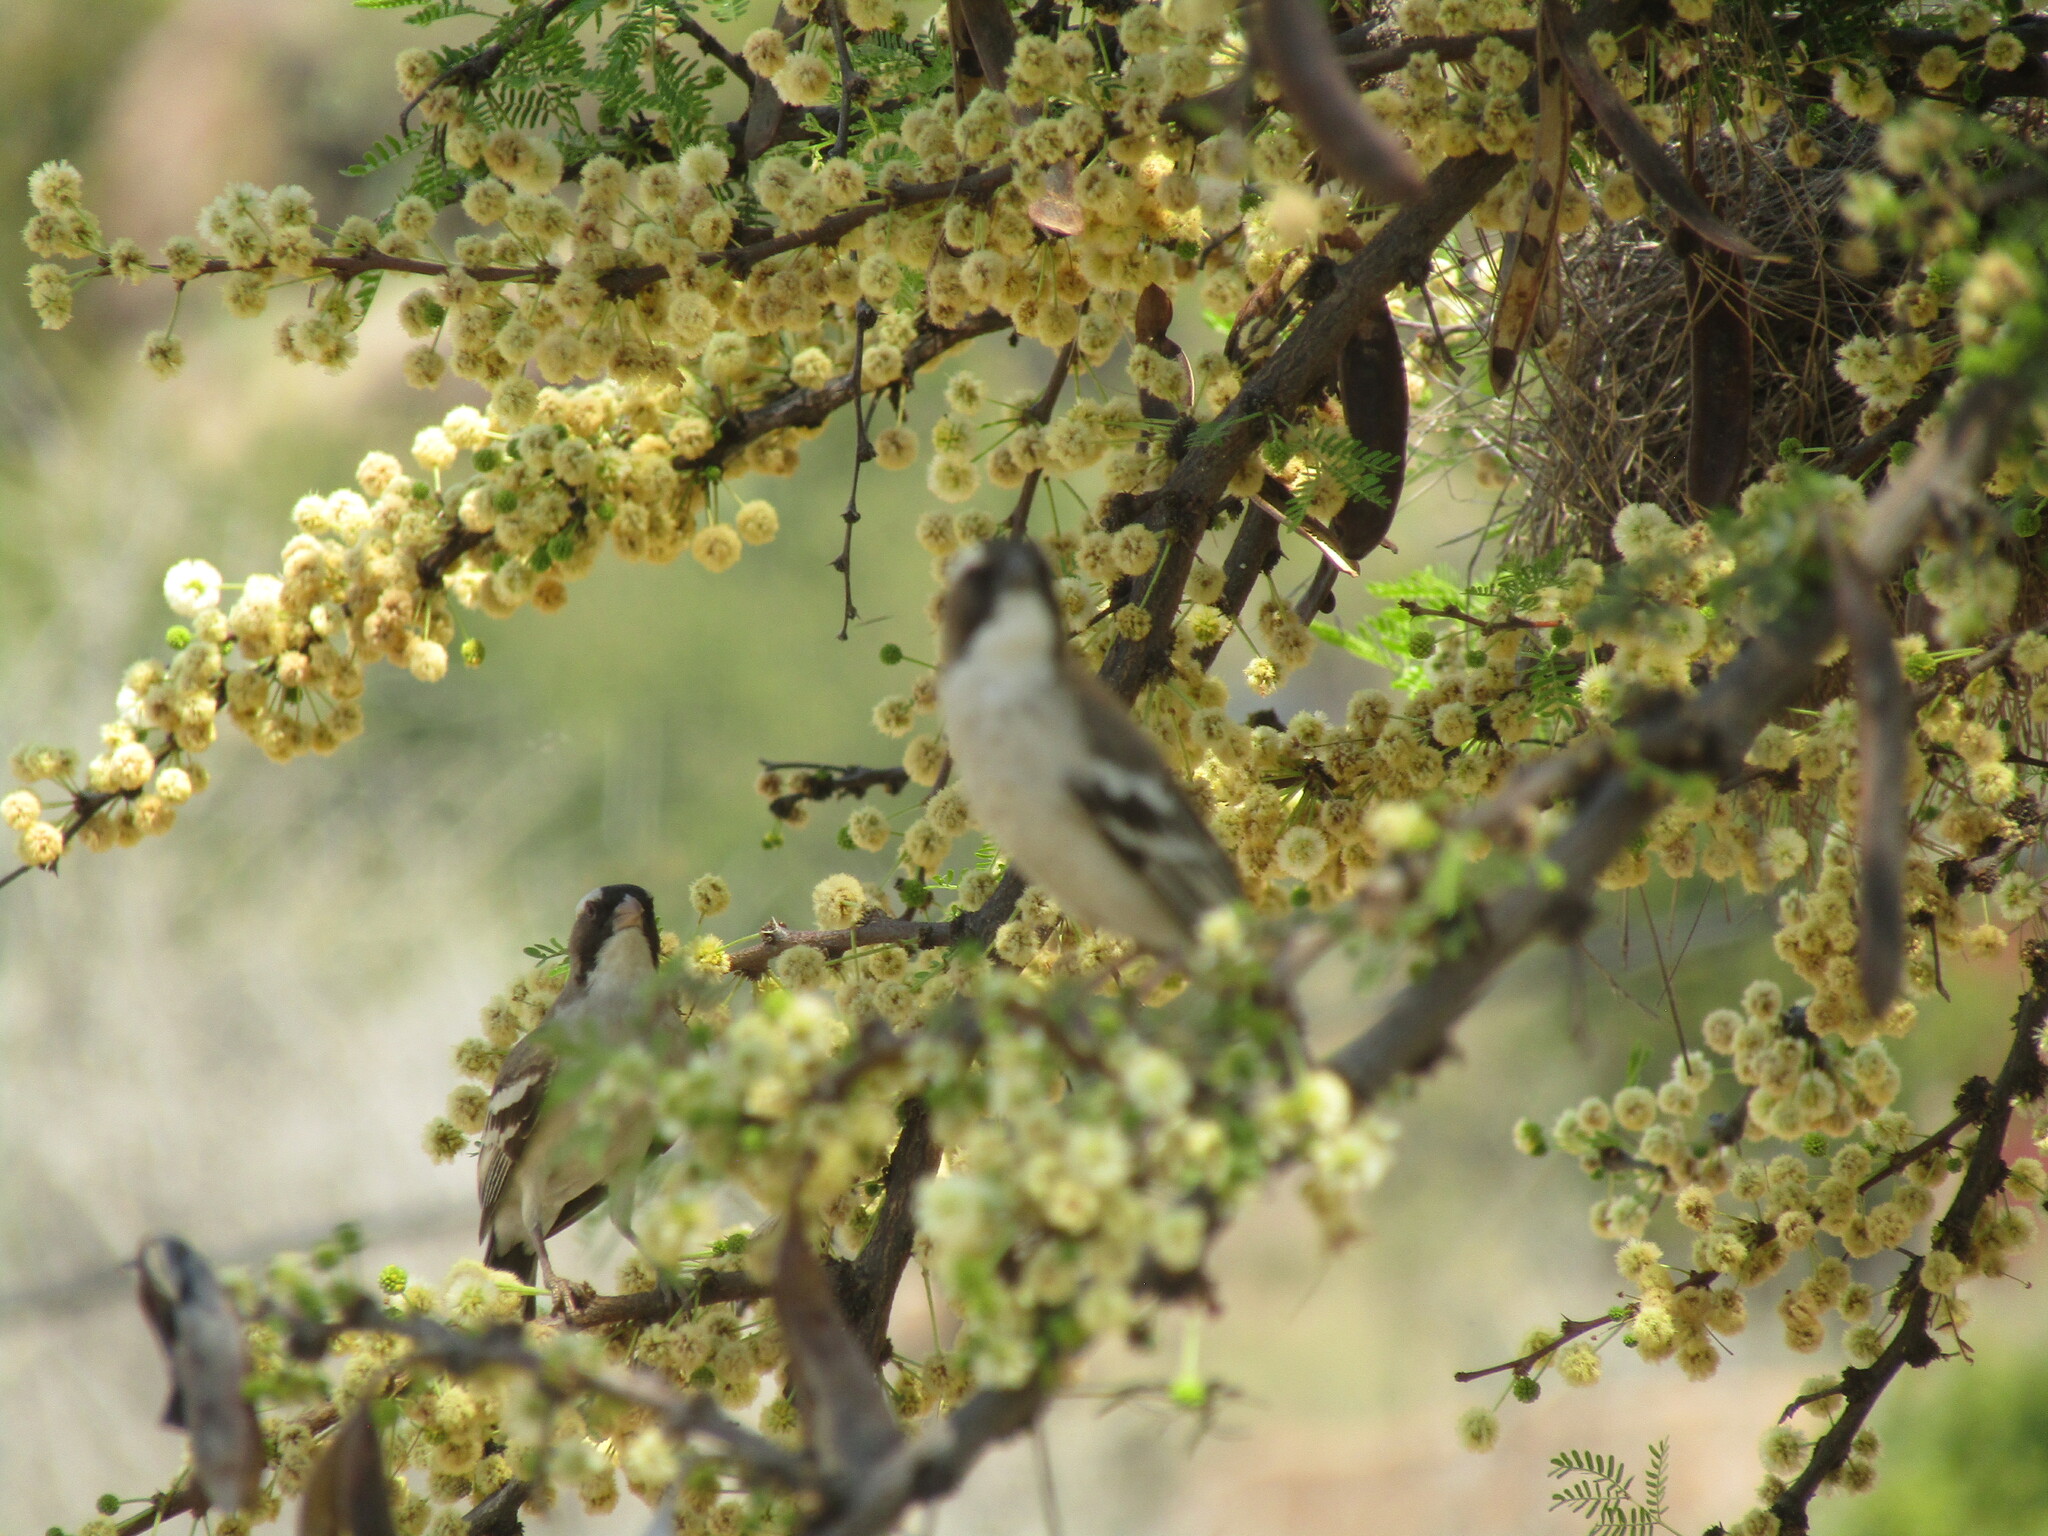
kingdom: Animalia
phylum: Chordata
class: Aves
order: Passeriformes
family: Passeridae
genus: Plocepasser
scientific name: Plocepasser mahali
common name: White-browed sparrow-weaver
